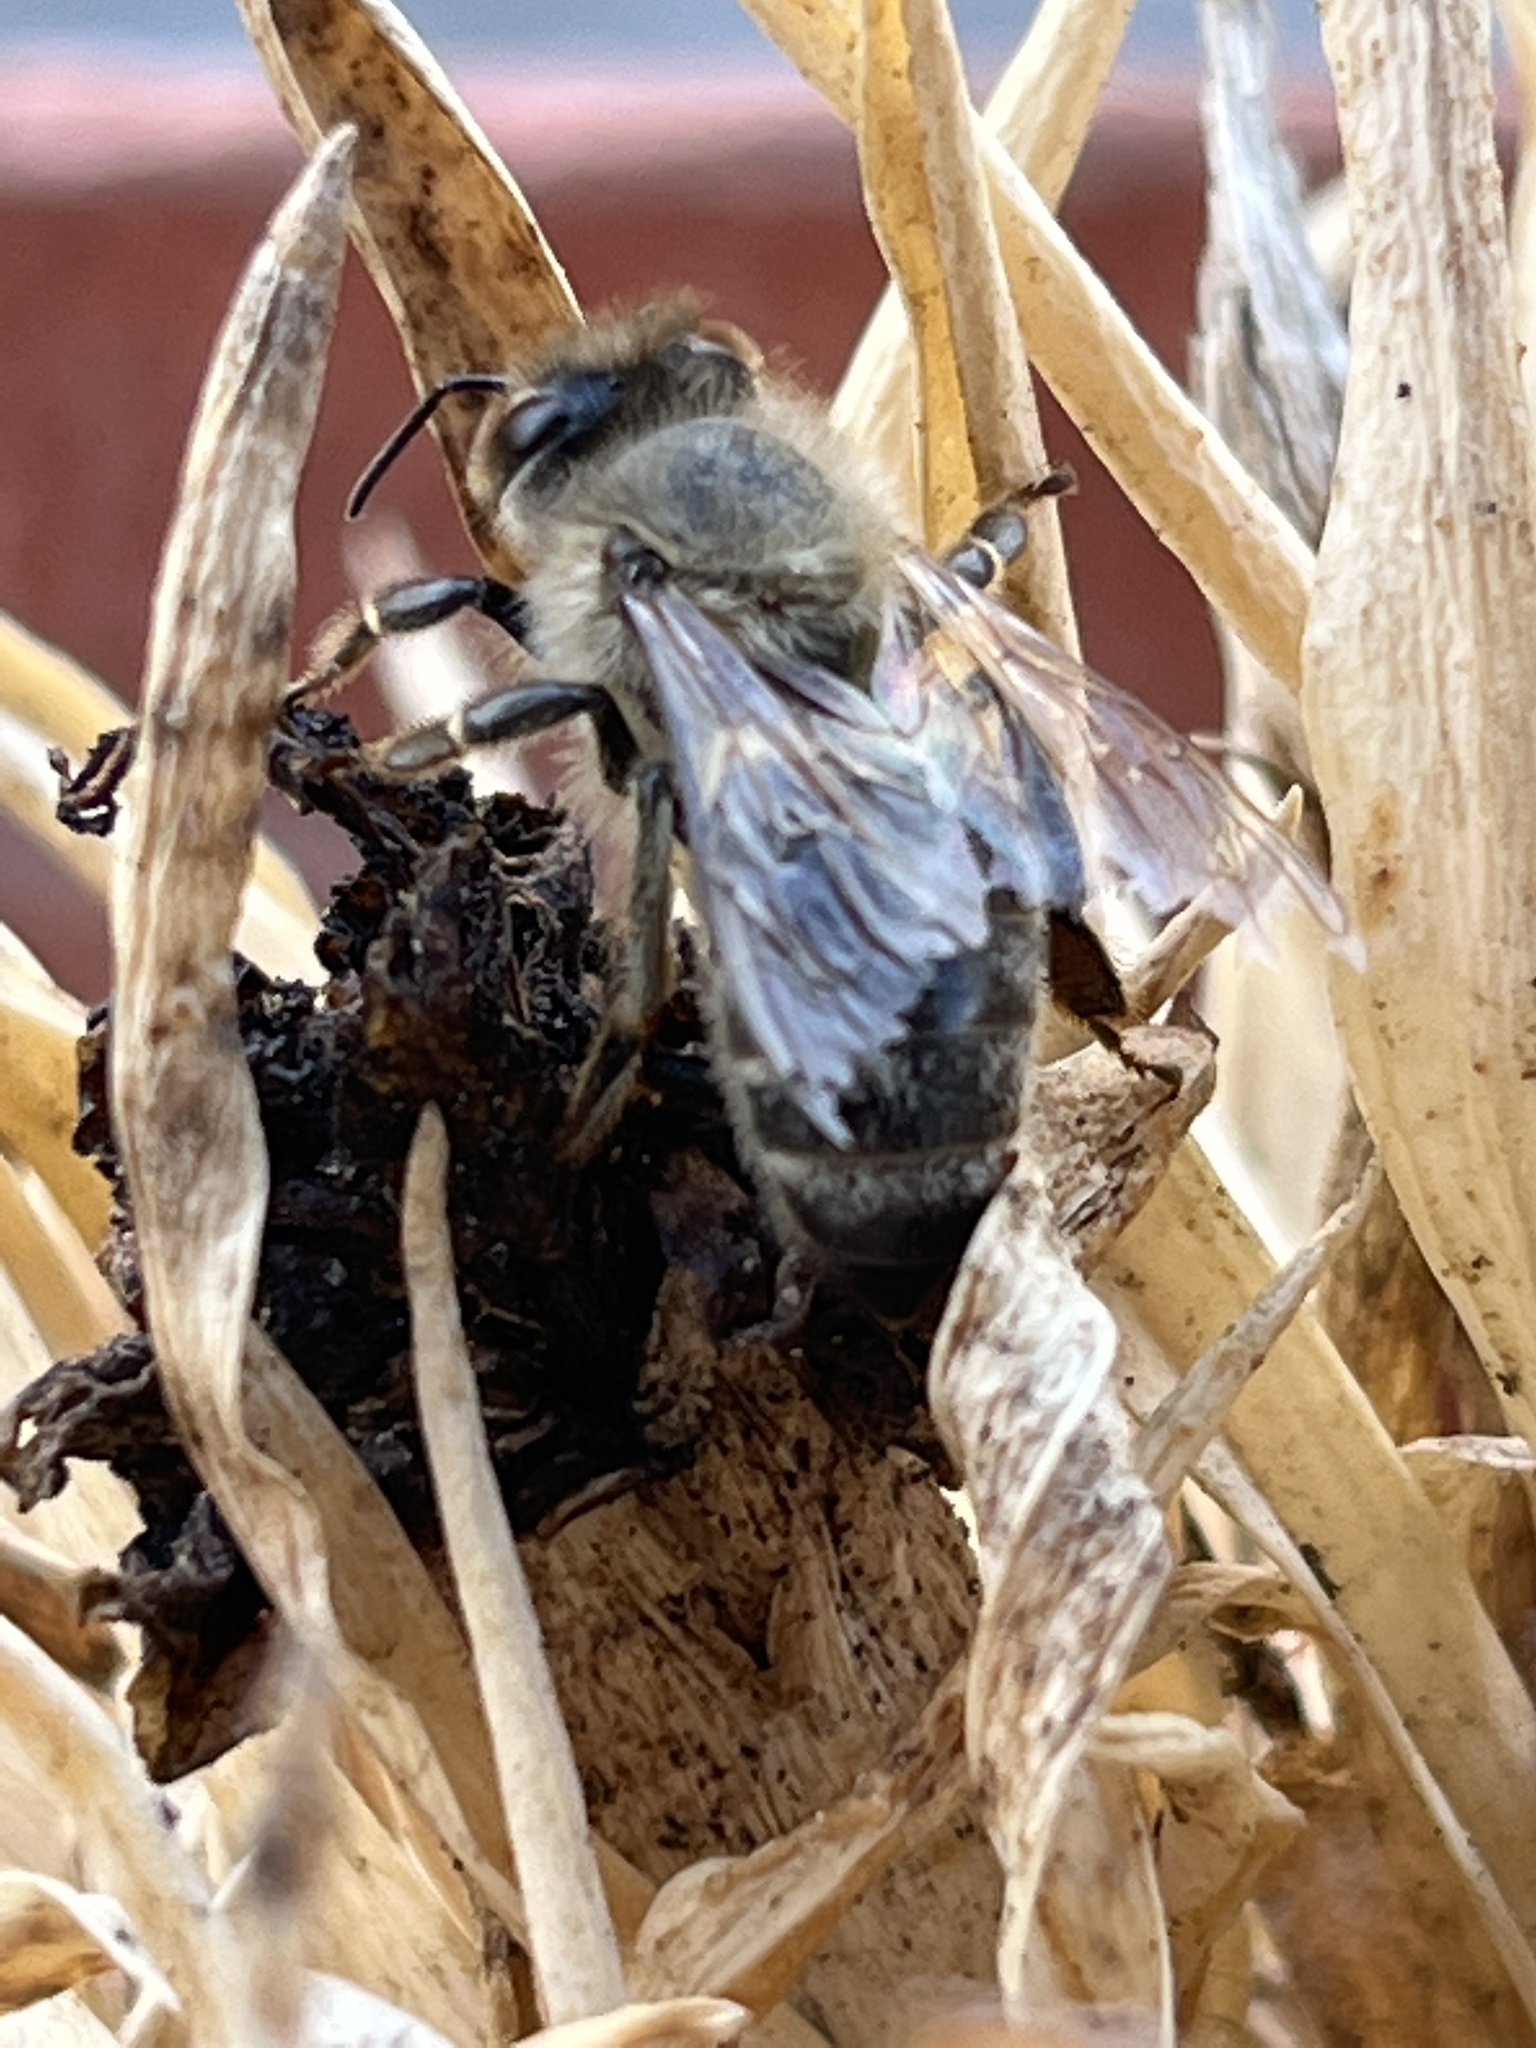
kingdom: Animalia
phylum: Arthropoda
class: Insecta
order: Hymenoptera
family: Apidae
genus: Apis
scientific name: Apis mellifera
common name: Honey bee
